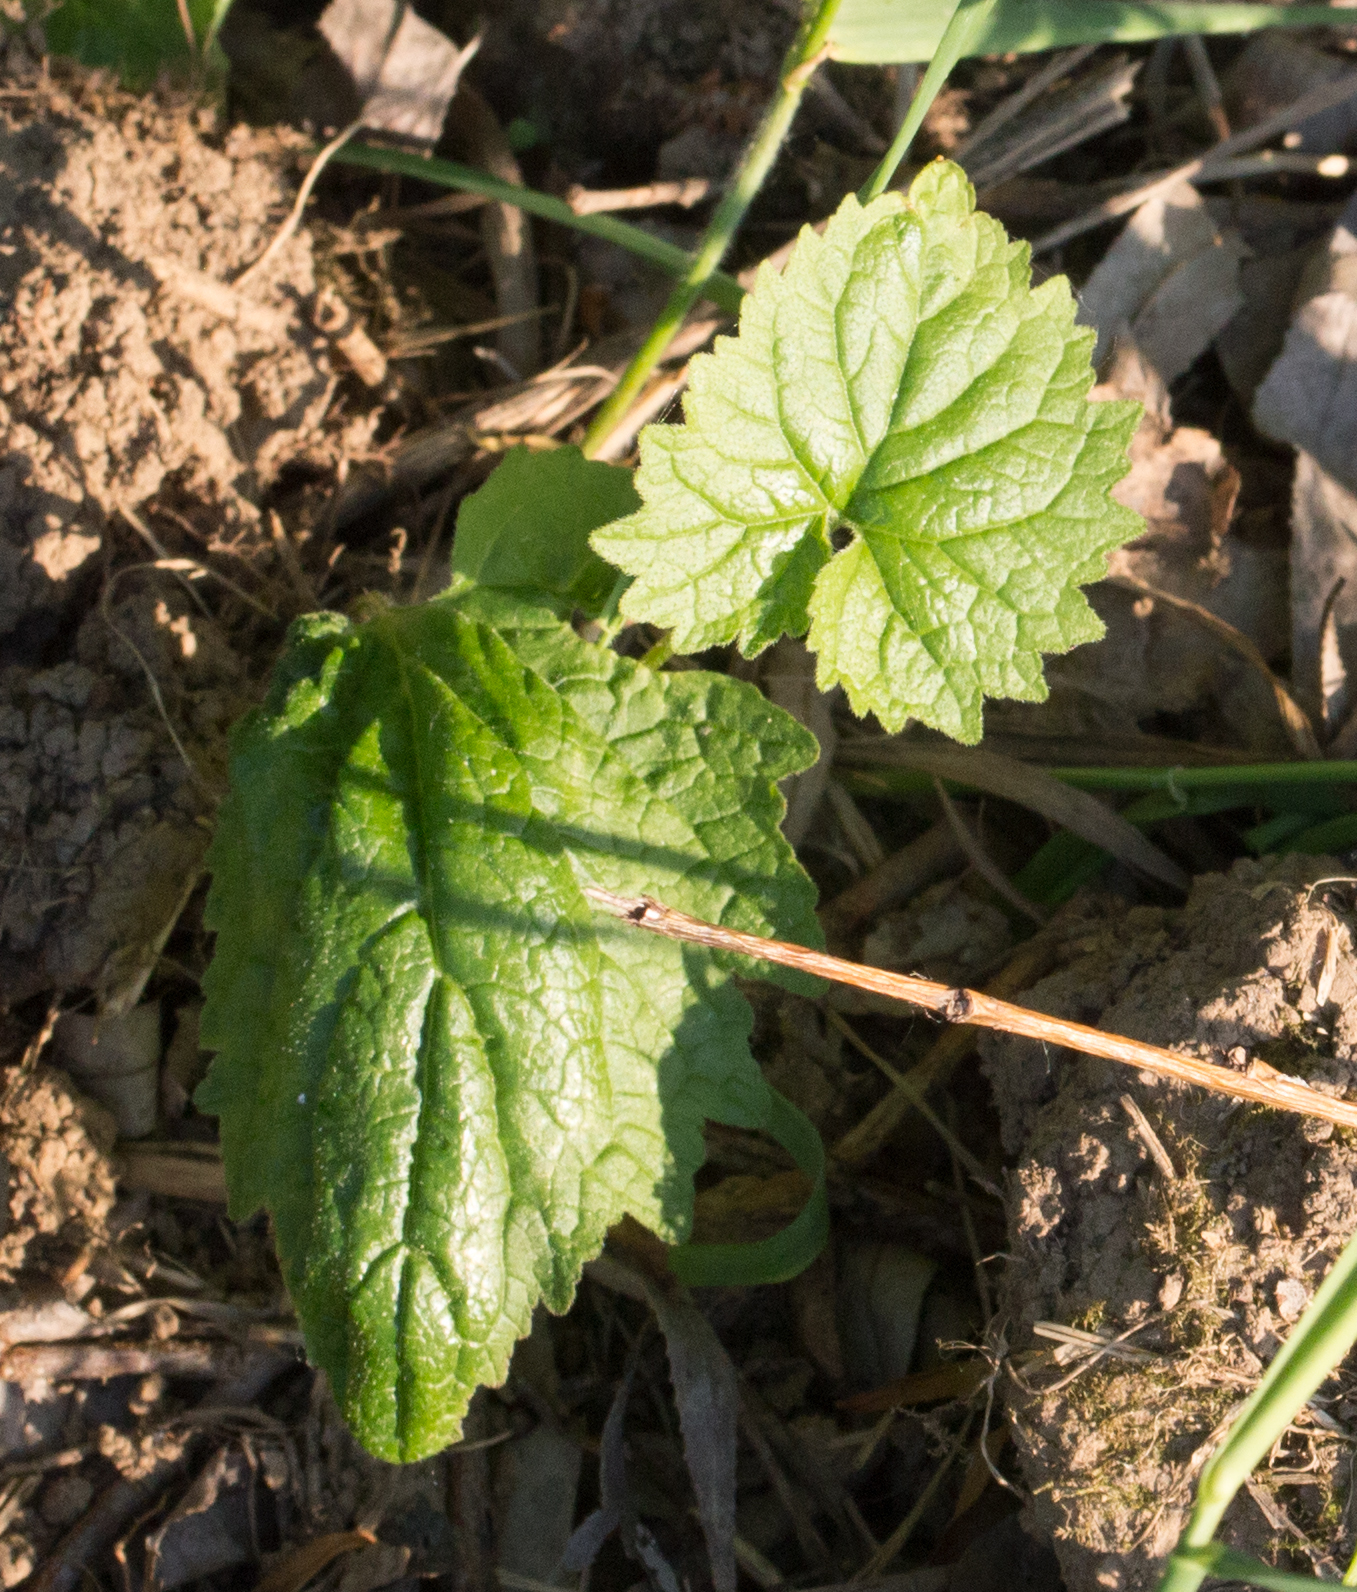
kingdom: Plantae
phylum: Tracheophyta
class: Magnoliopsida
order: Asterales
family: Campanulaceae
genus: Campanula
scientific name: Campanula trachelium
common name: Nettle-leaved bellflower
